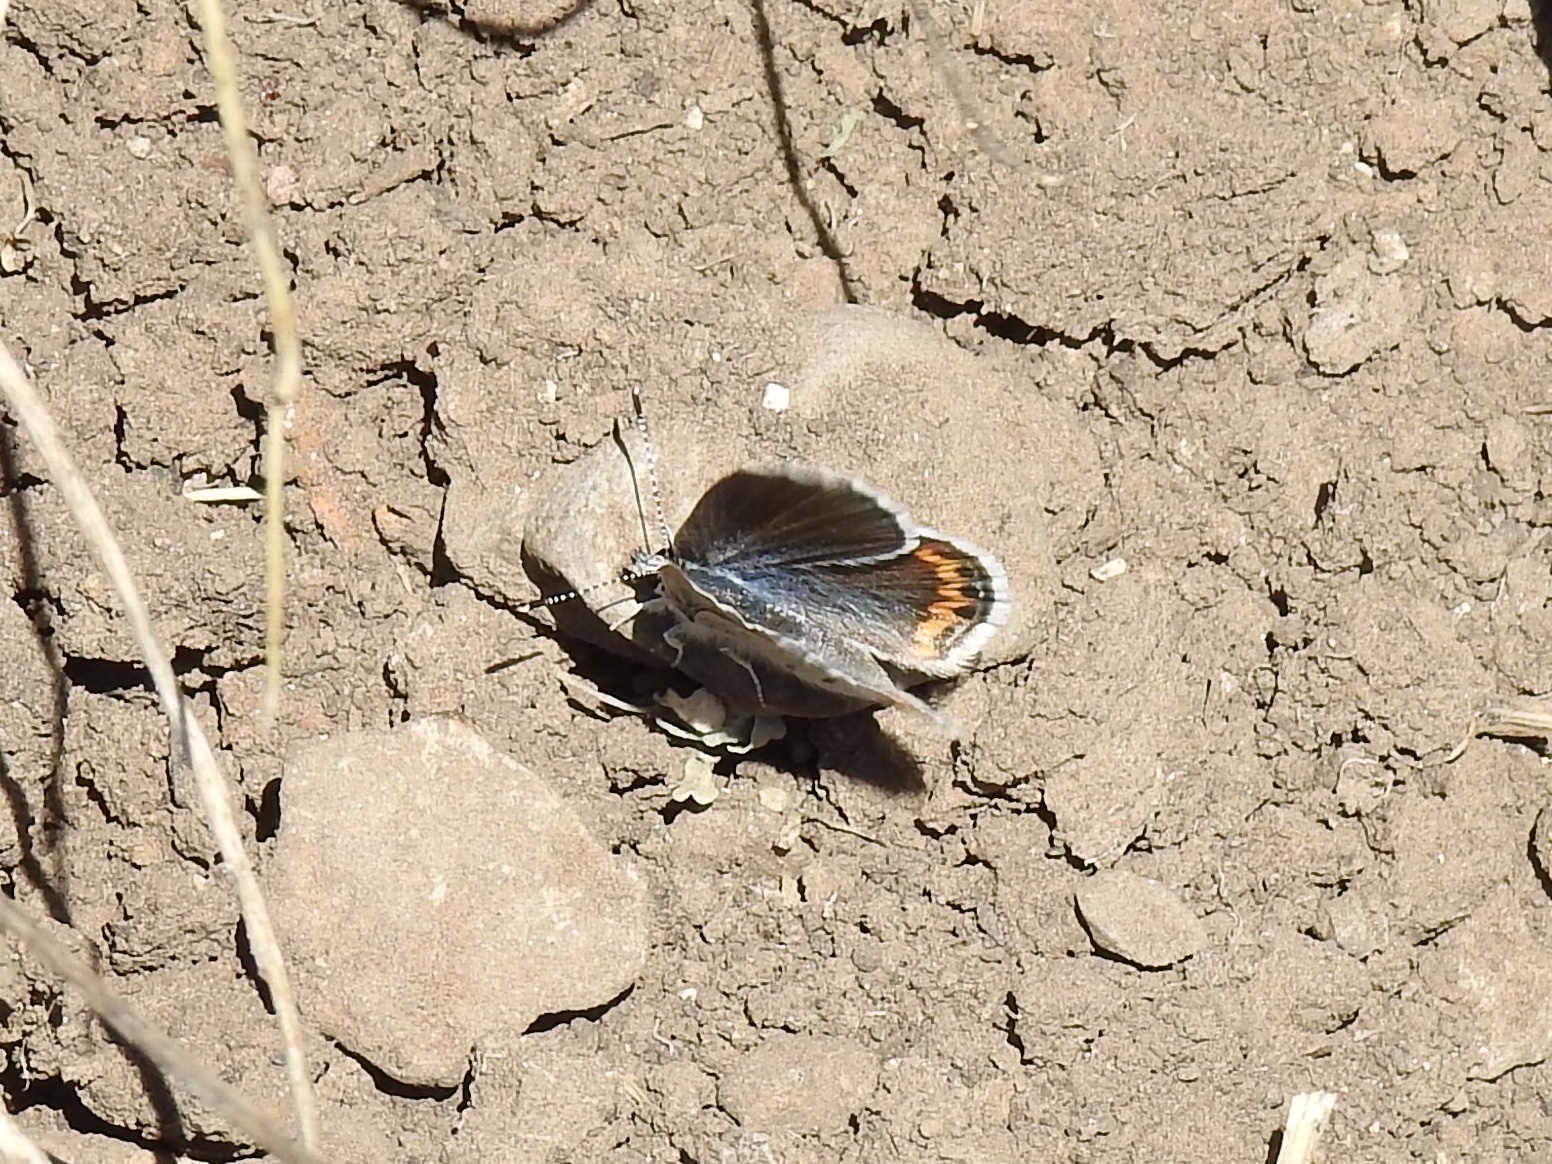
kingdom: Animalia
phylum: Arthropoda
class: Insecta
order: Lepidoptera
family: Lycaenidae
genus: Icaricia
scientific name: Icaricia lupini
